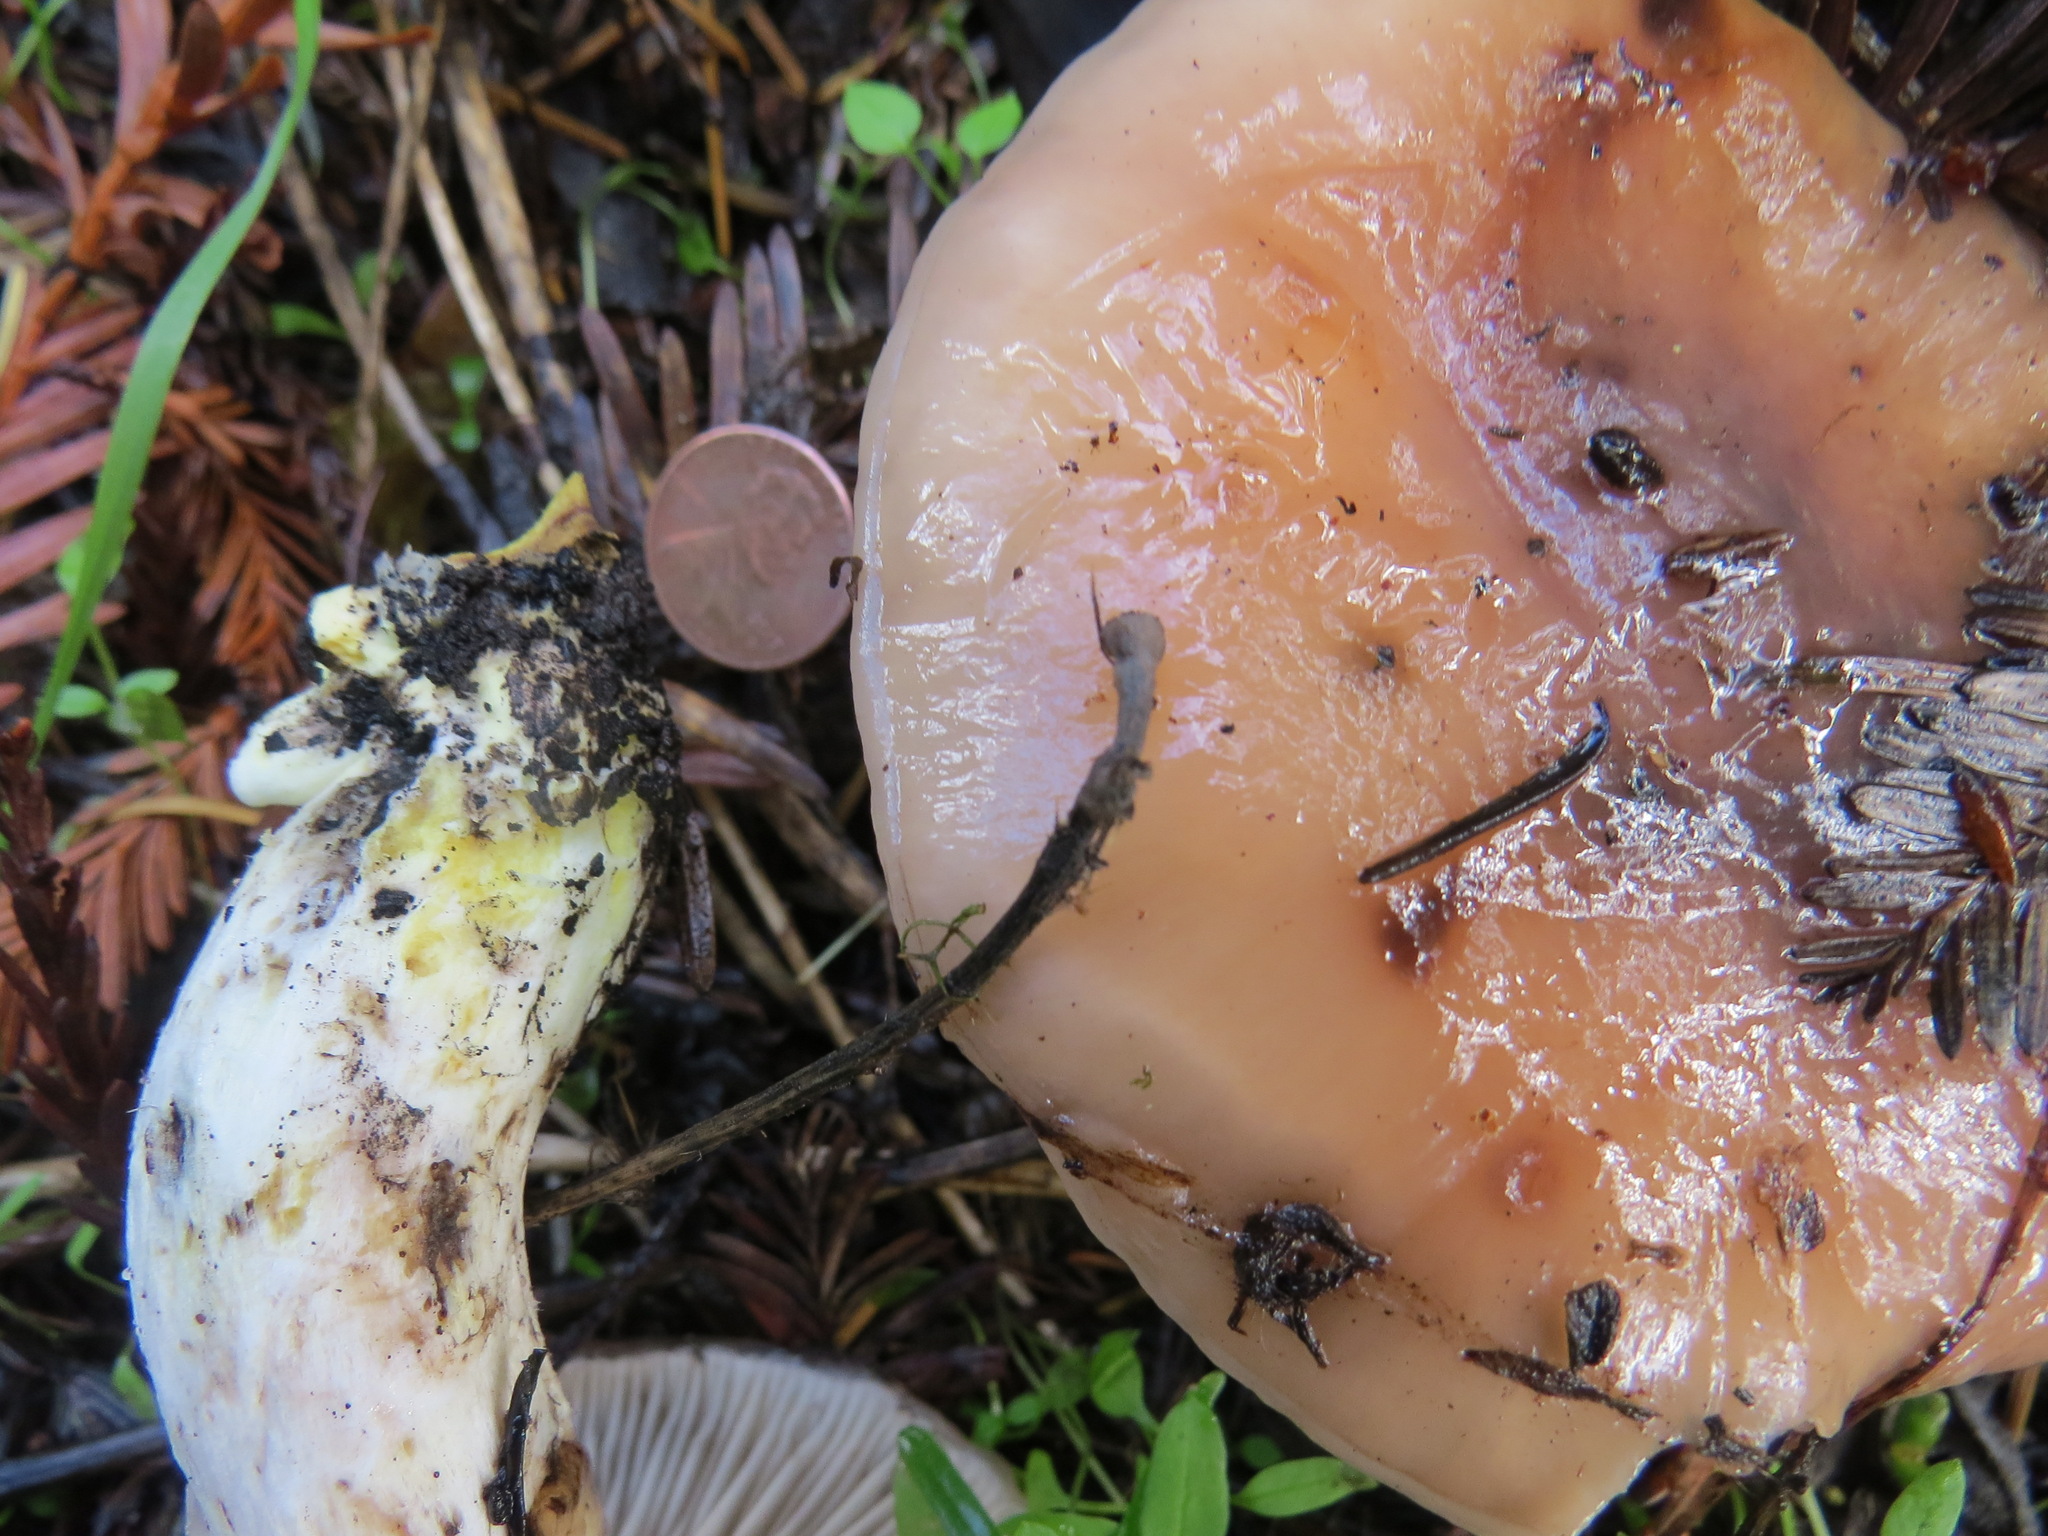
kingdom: Fungi
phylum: Basidiomycota
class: Agaricomycetes
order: Boletales
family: Gomphidiaceae
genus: Gomphidius
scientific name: Gomphidius oregonensis
